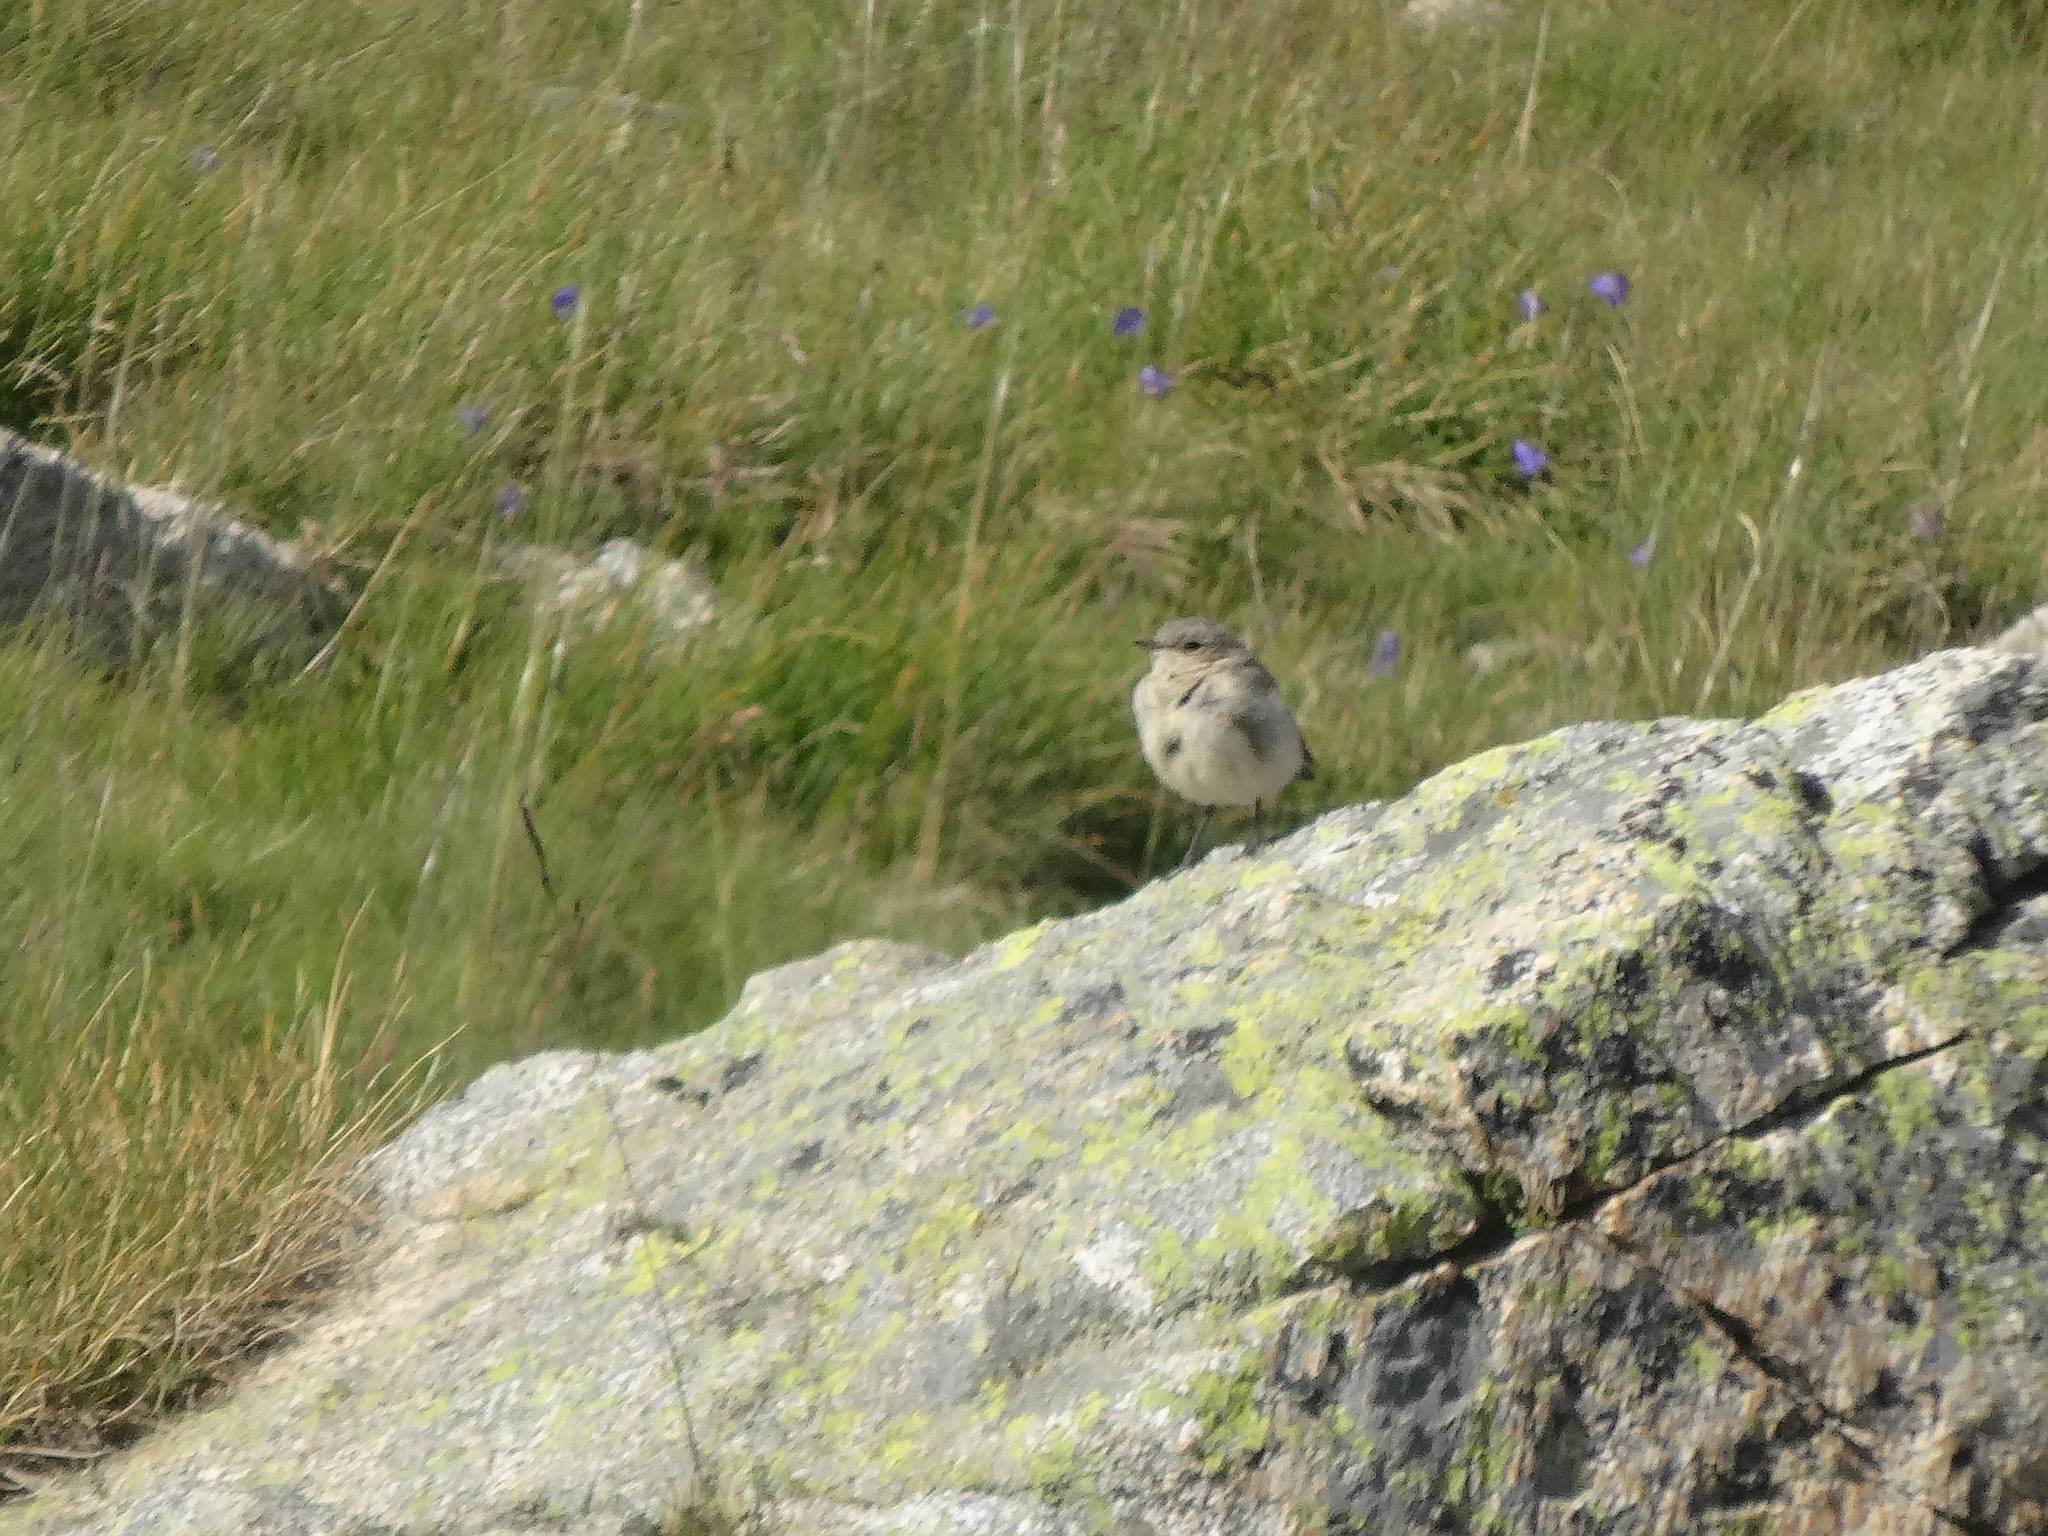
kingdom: Animalia
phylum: Chordata
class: Aves
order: Passeriformes
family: Muscicapidae
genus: Oenanthe
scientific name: Oenanthe oenanthe
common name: Northern wheatear
